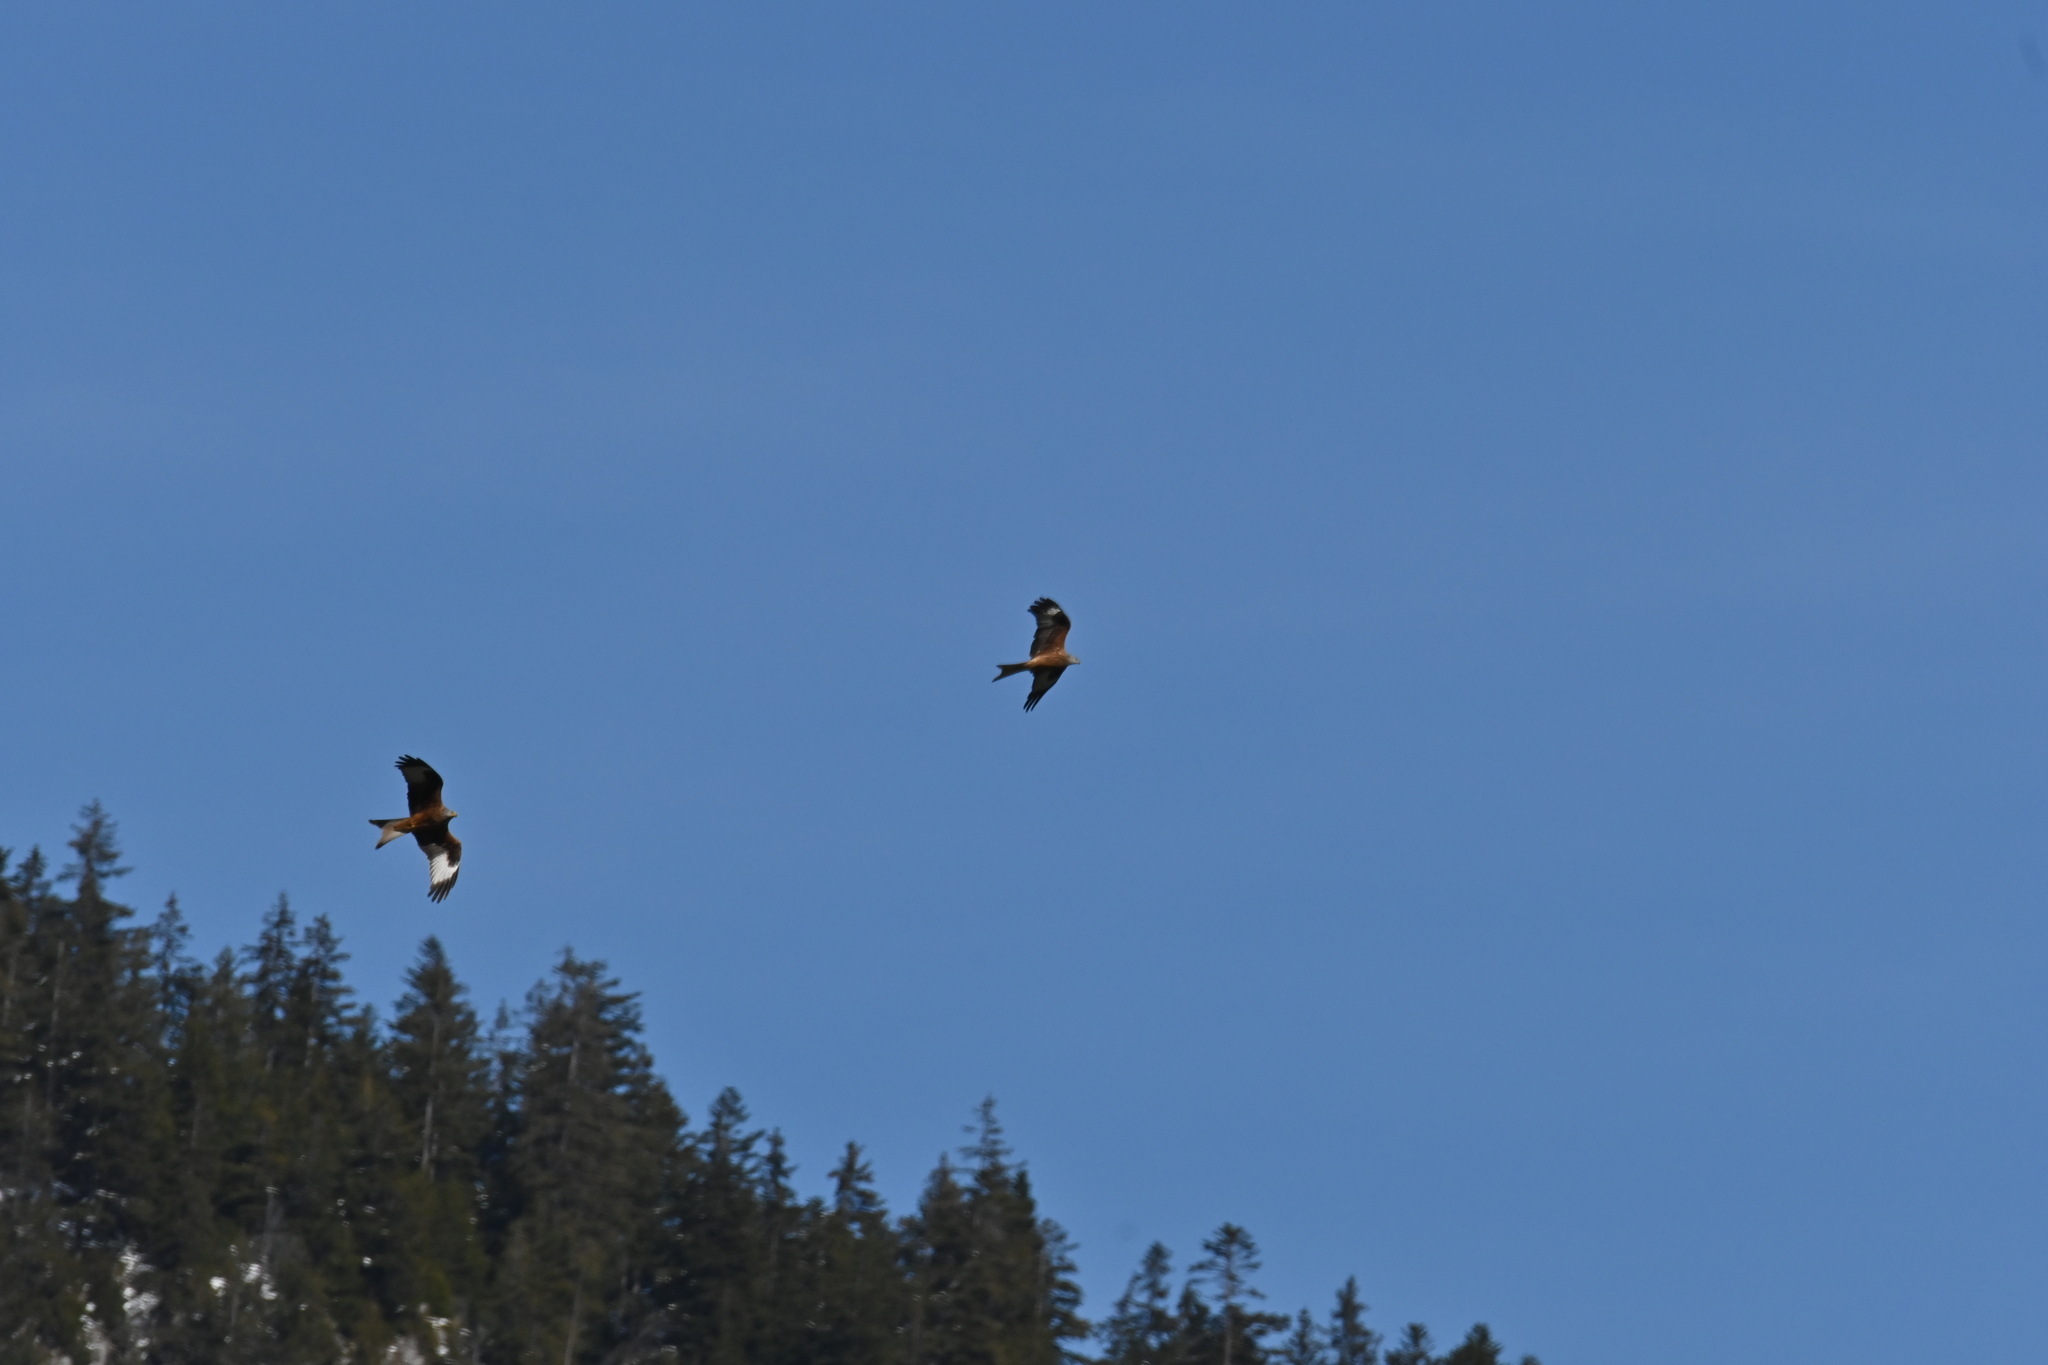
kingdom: Animalia
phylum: Chordata
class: Aves
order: Accipitriformes
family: Accipitridae
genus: Milvus
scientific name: Milvus milvus
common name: Red kite
